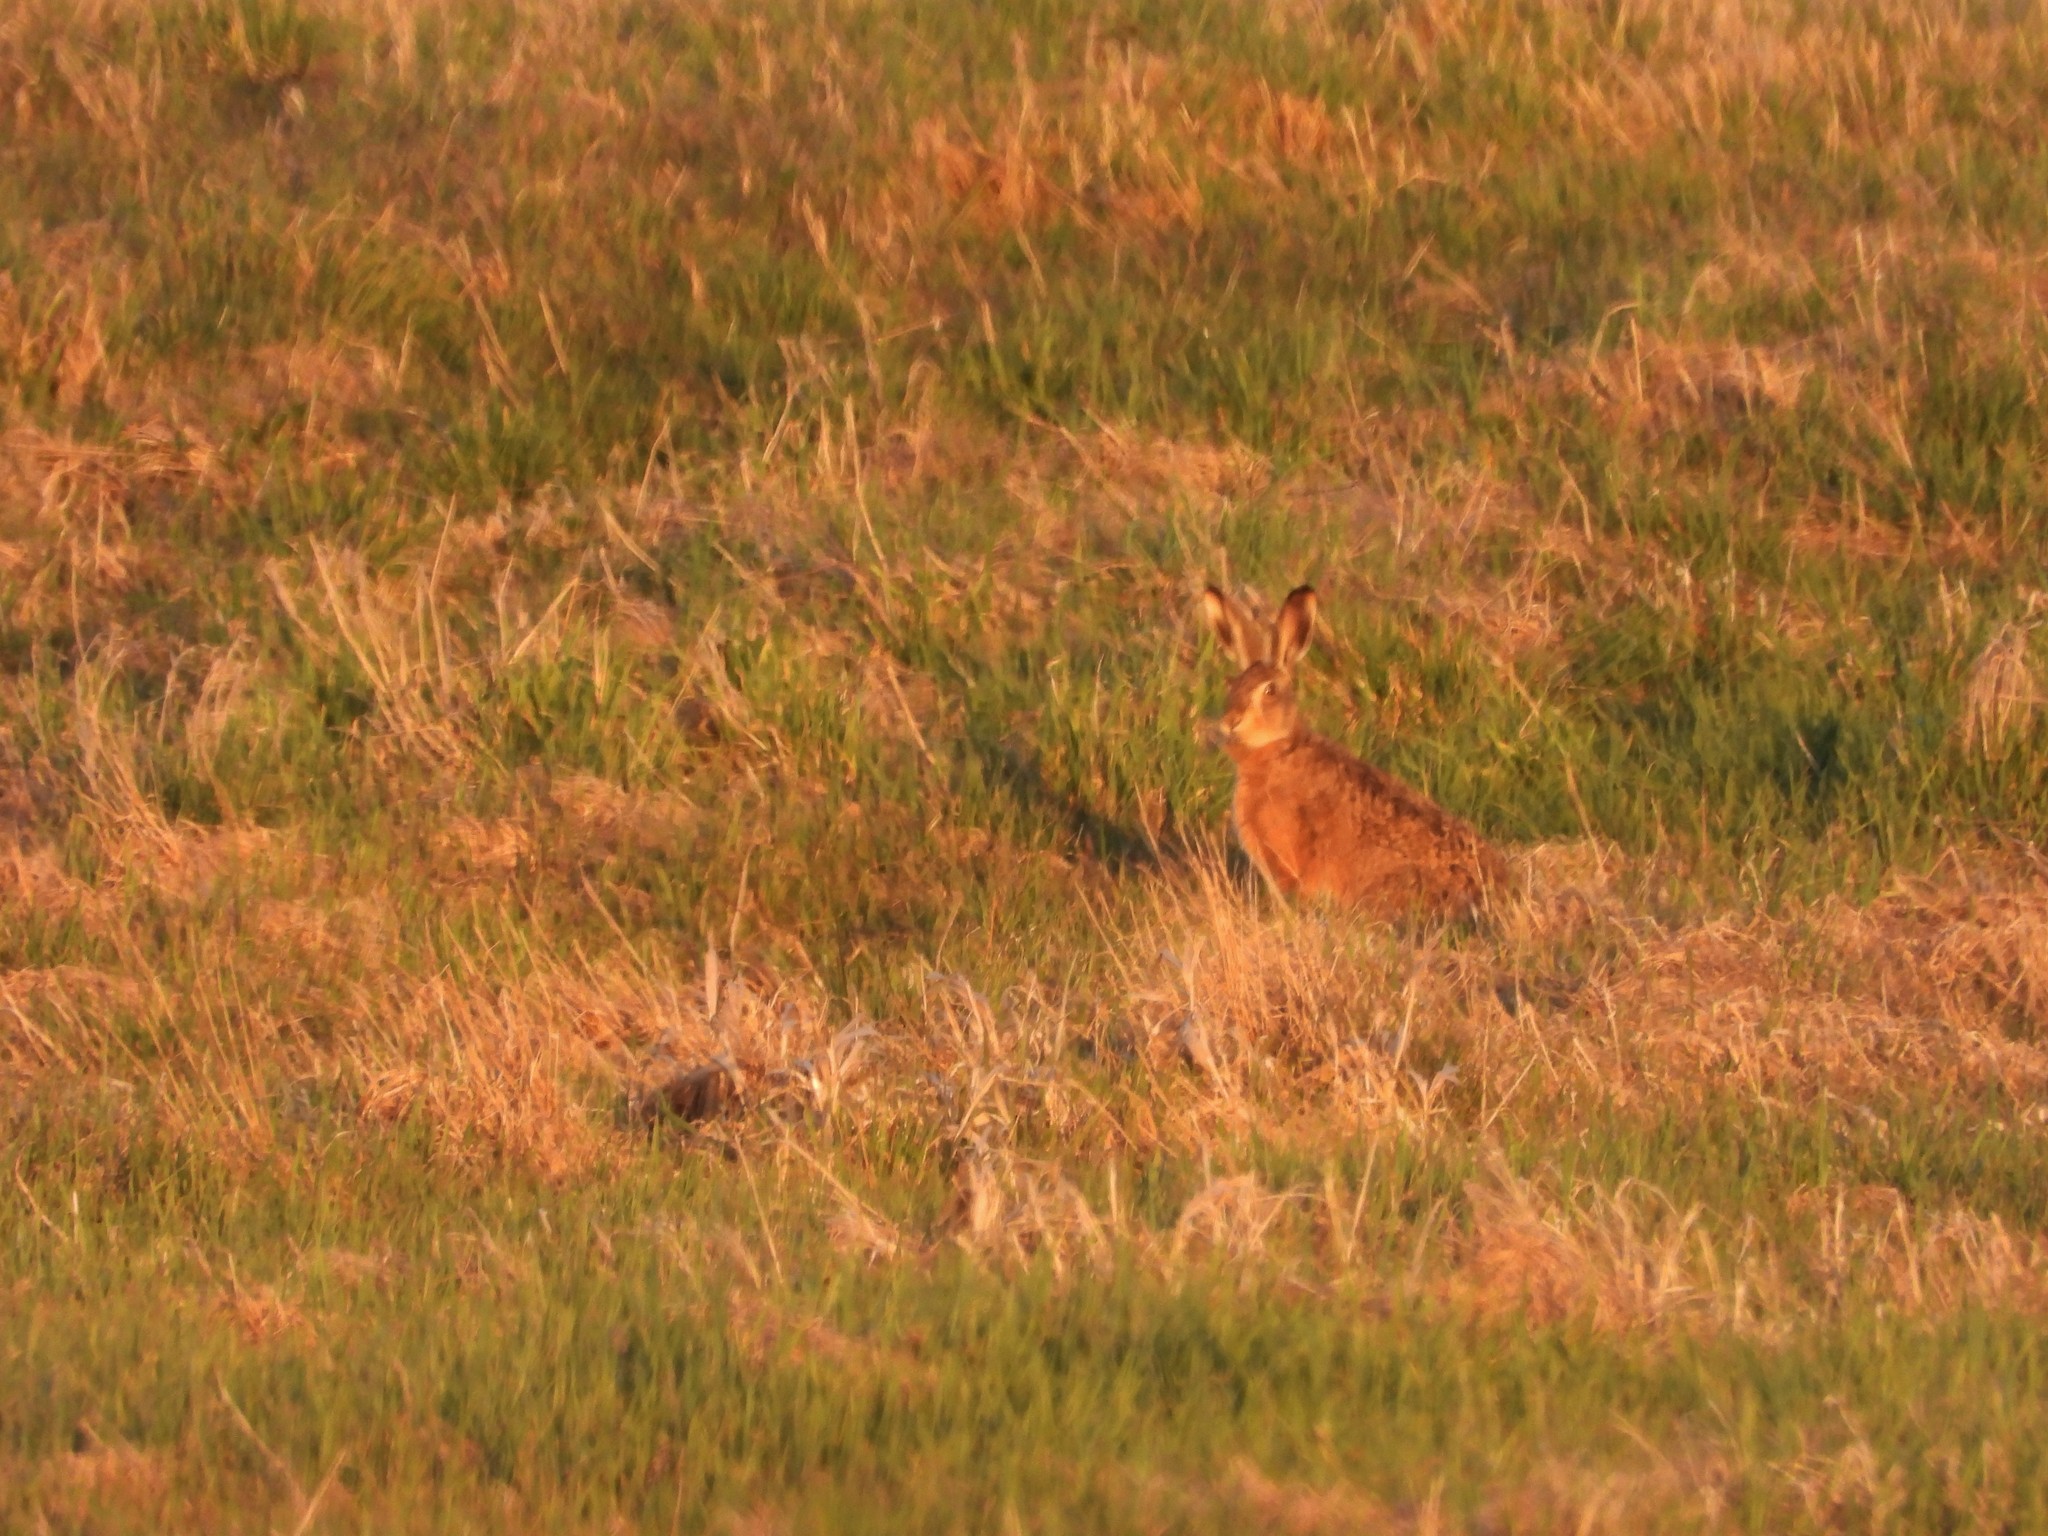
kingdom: Animalia
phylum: Chordata
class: Mammalia
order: Lagomorpha
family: Leporidae
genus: Lepus
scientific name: Lepus europaeus
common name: European hare
